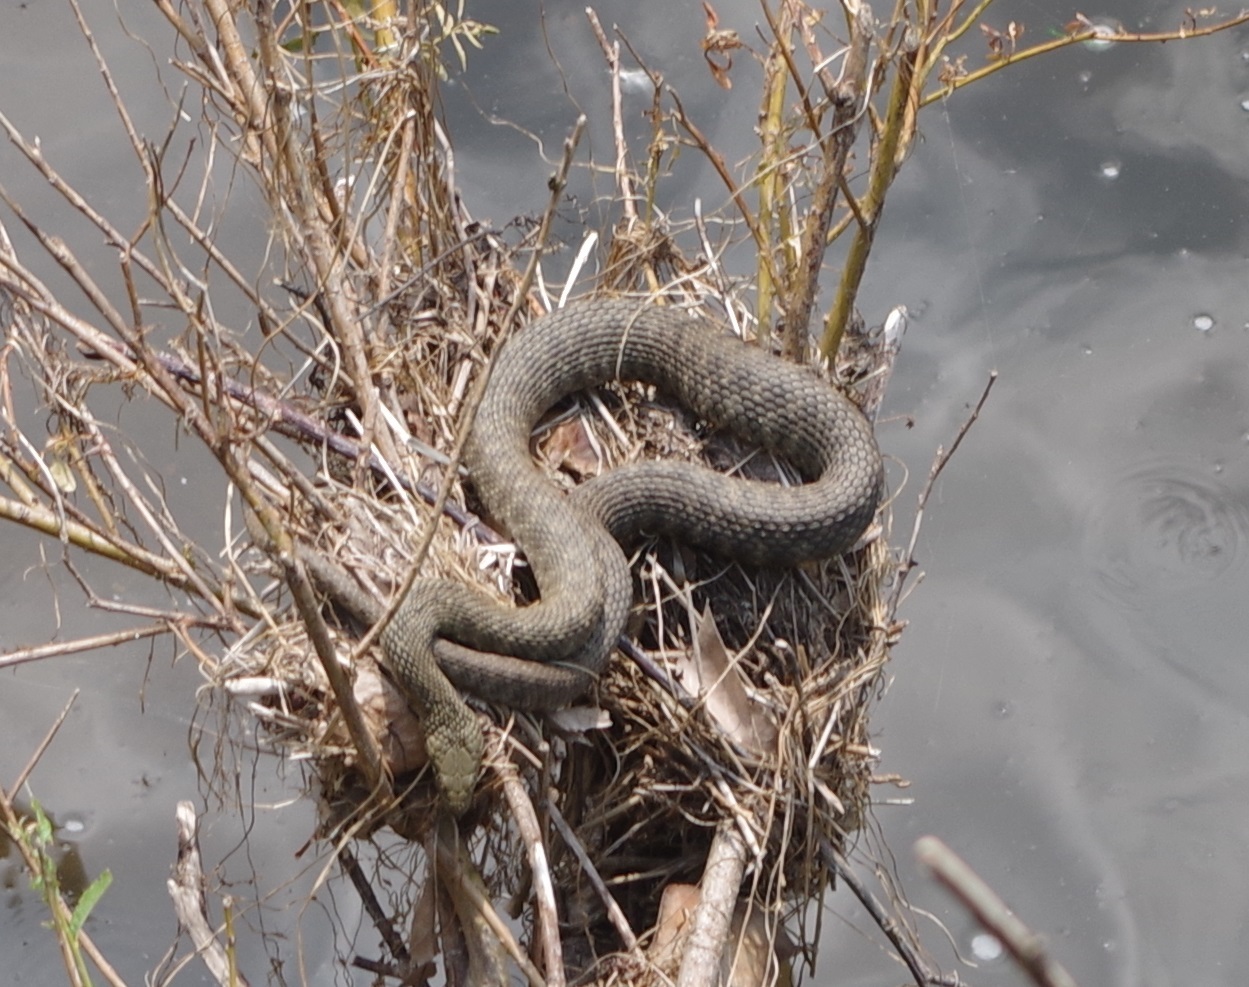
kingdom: Animalia
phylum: Chordata
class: Squamata
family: Colubridae
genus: Natrix
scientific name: Natrix tessellata
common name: Dice snake
